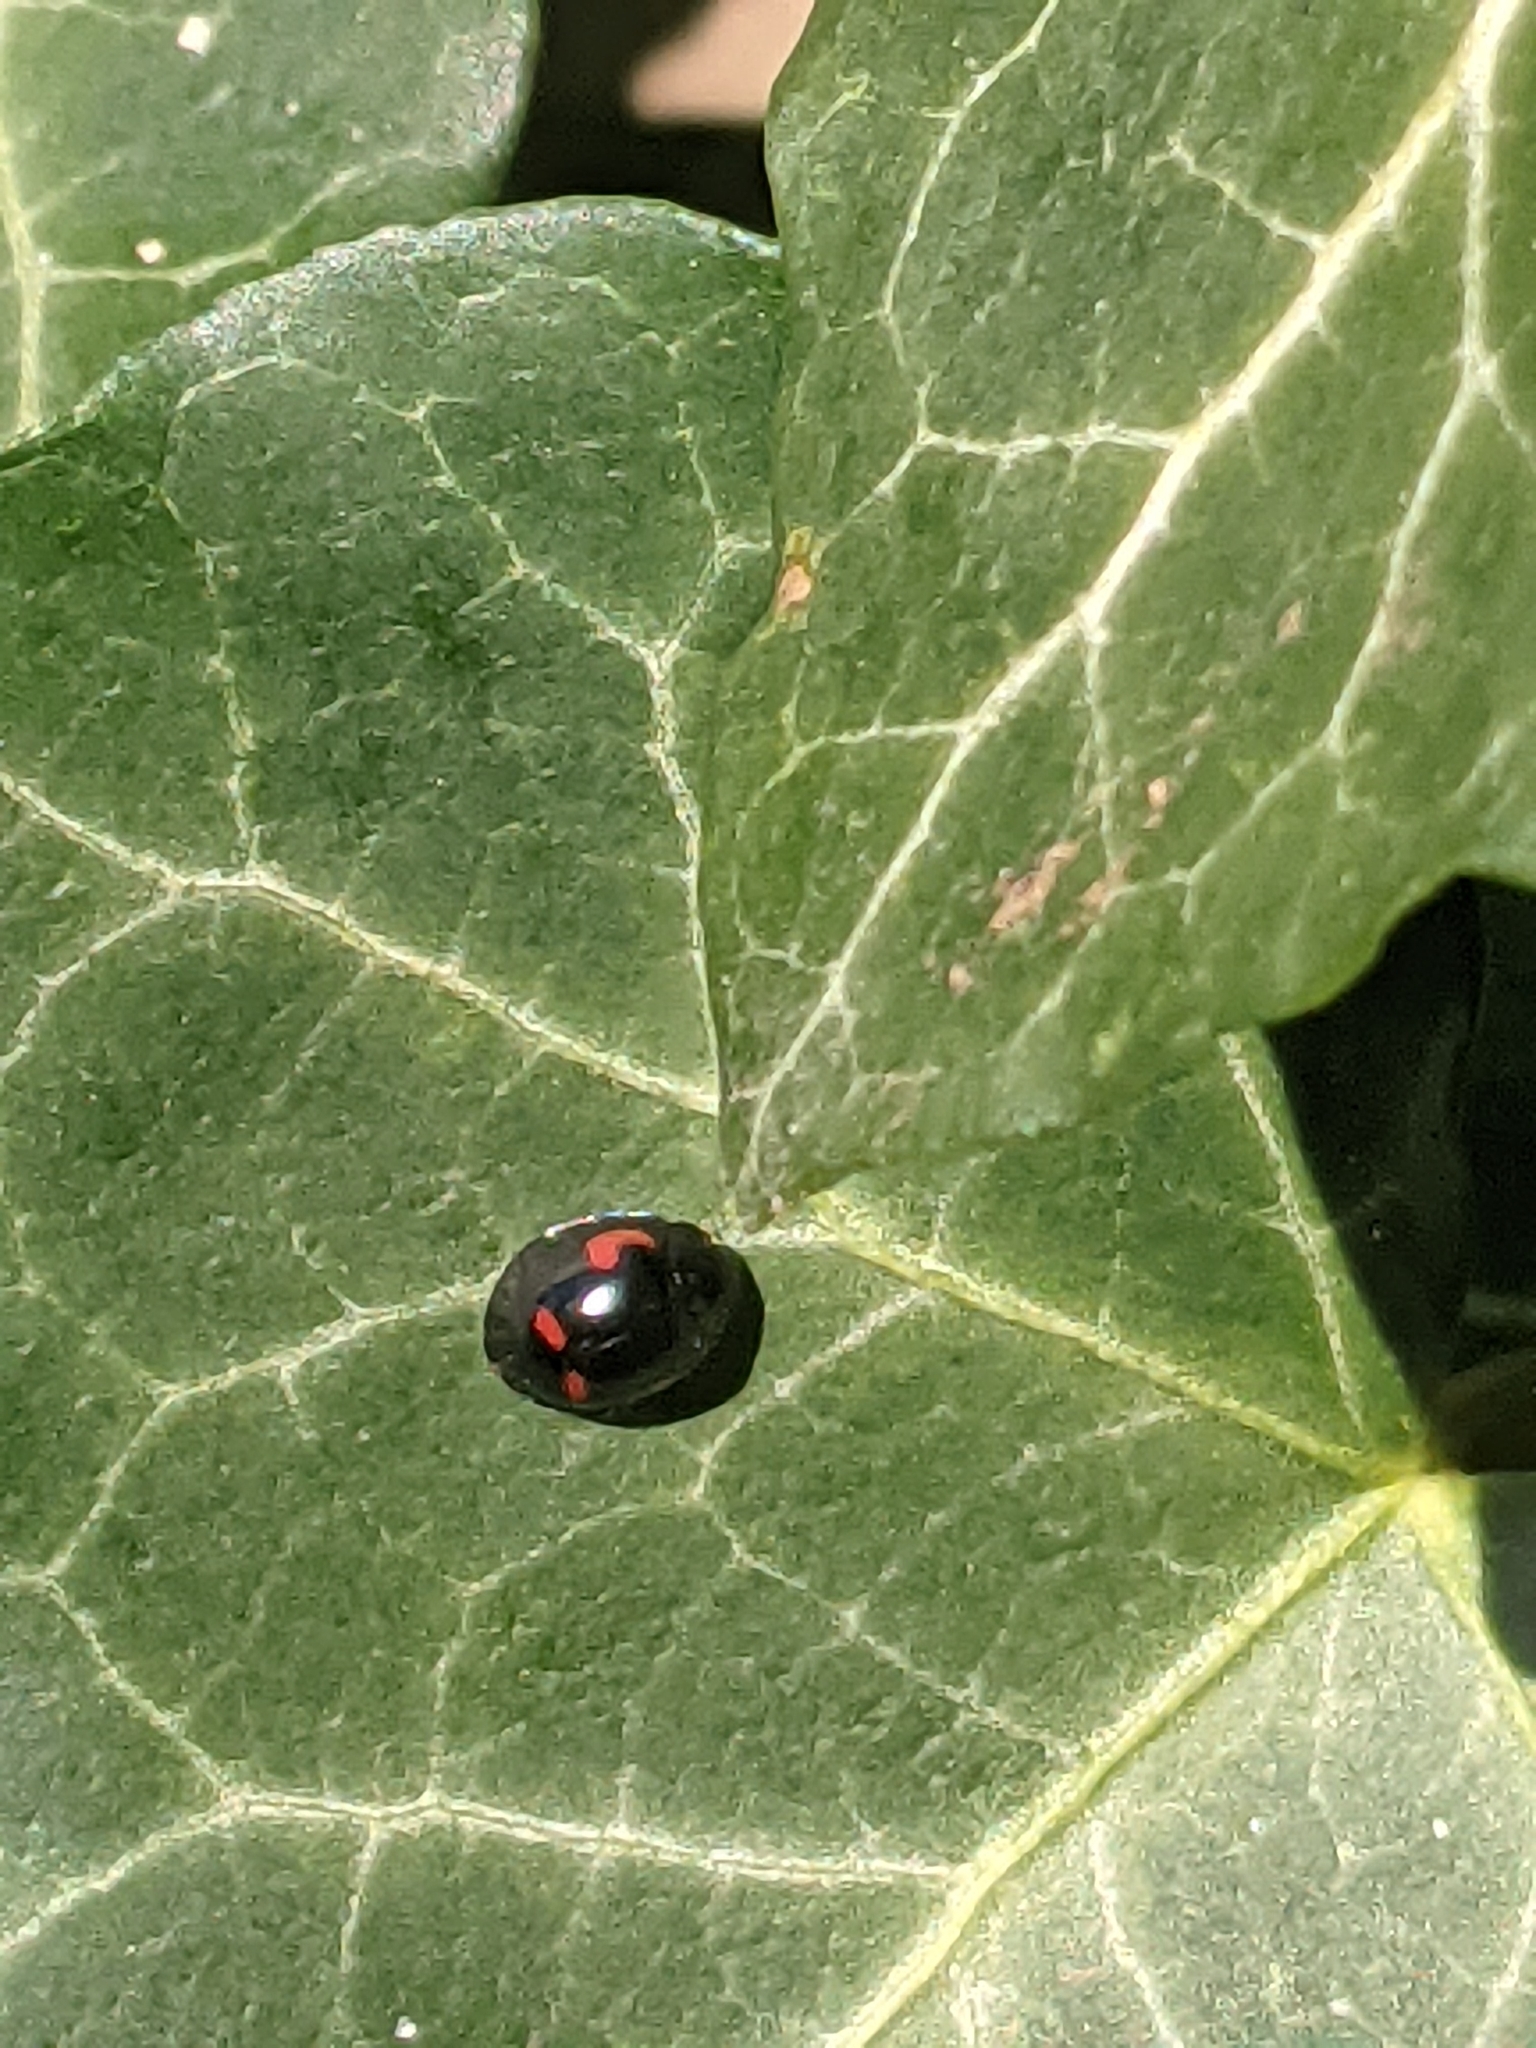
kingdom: Animalia
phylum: Arthropoda
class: Insecta
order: Coleoptera
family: Coccinellidae
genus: Brumus
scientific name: Brumus quadripustulatus
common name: Ladybird beetle
